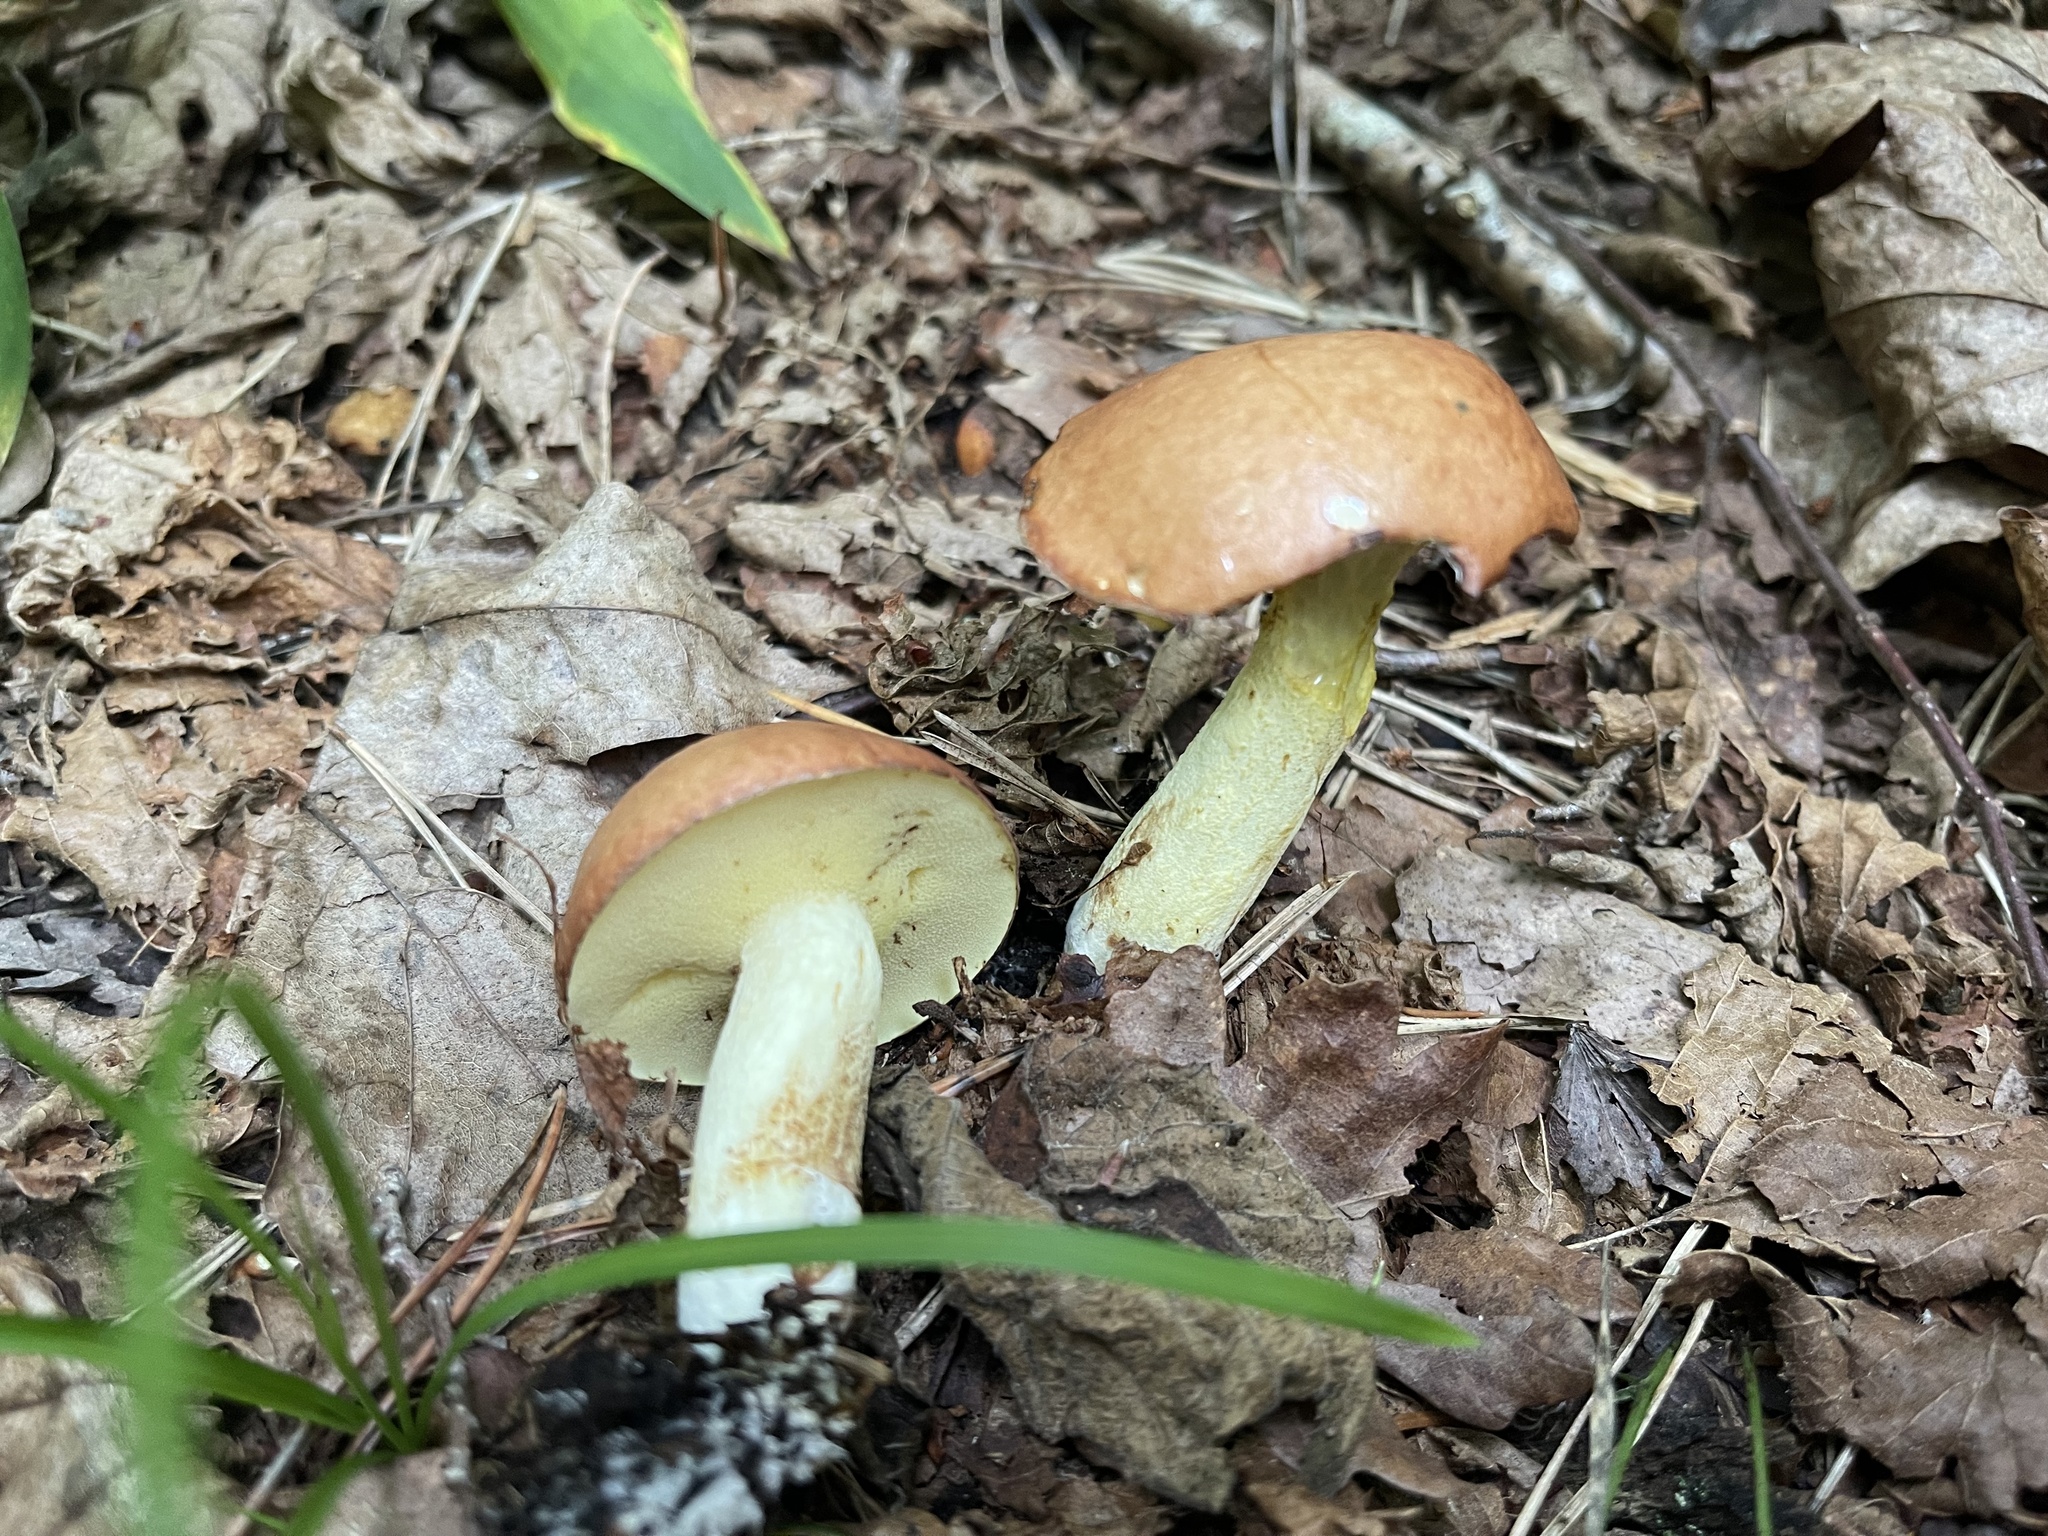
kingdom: Fungi
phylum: Basidiomycota
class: Agaricomycetes
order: Boletales
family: Suillaceae
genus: Suillus
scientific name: Suillus granulatus
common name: Weeping bolete
